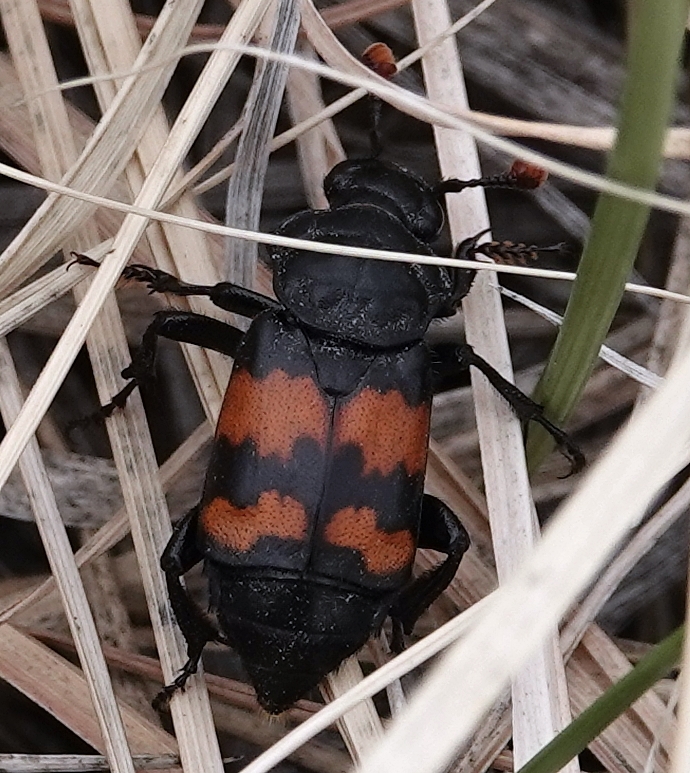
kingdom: Animalia
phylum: Arthropoda
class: Insecta
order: Coleoptera
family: Staphylinidae
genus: Nicrophorus
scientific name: Nicrophorus marginatus
